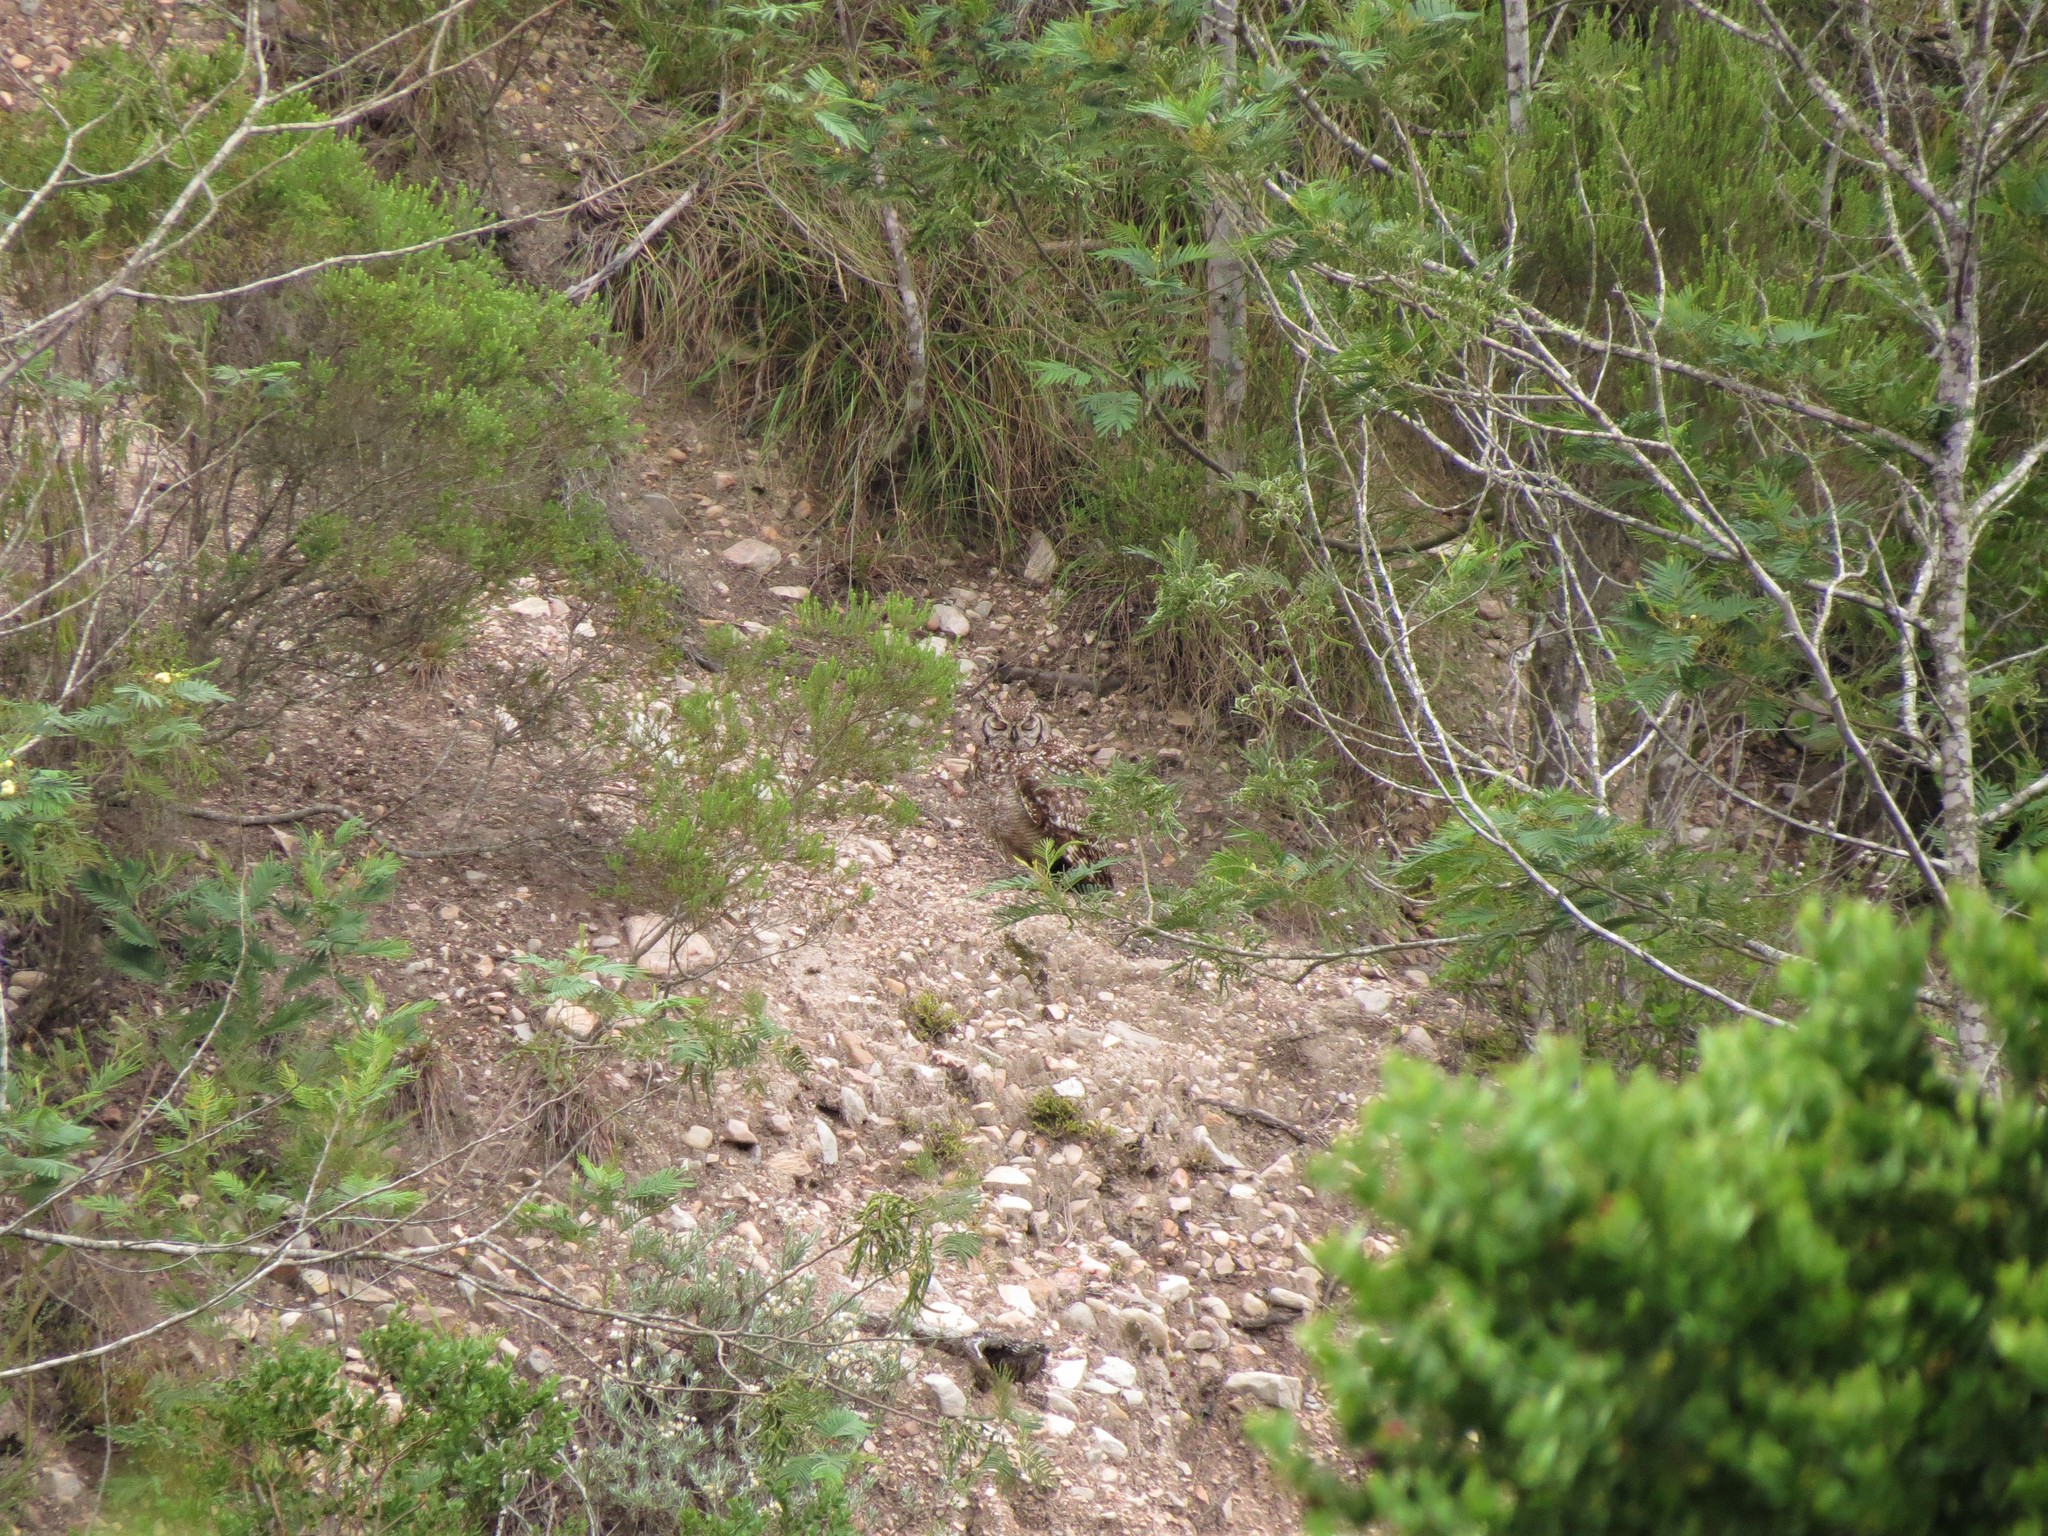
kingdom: Animalia
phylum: Chordata
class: Aves
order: Strigiformes
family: Strigidae
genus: Bubo
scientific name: Bubo africanus
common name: Spotted eagle-owl
